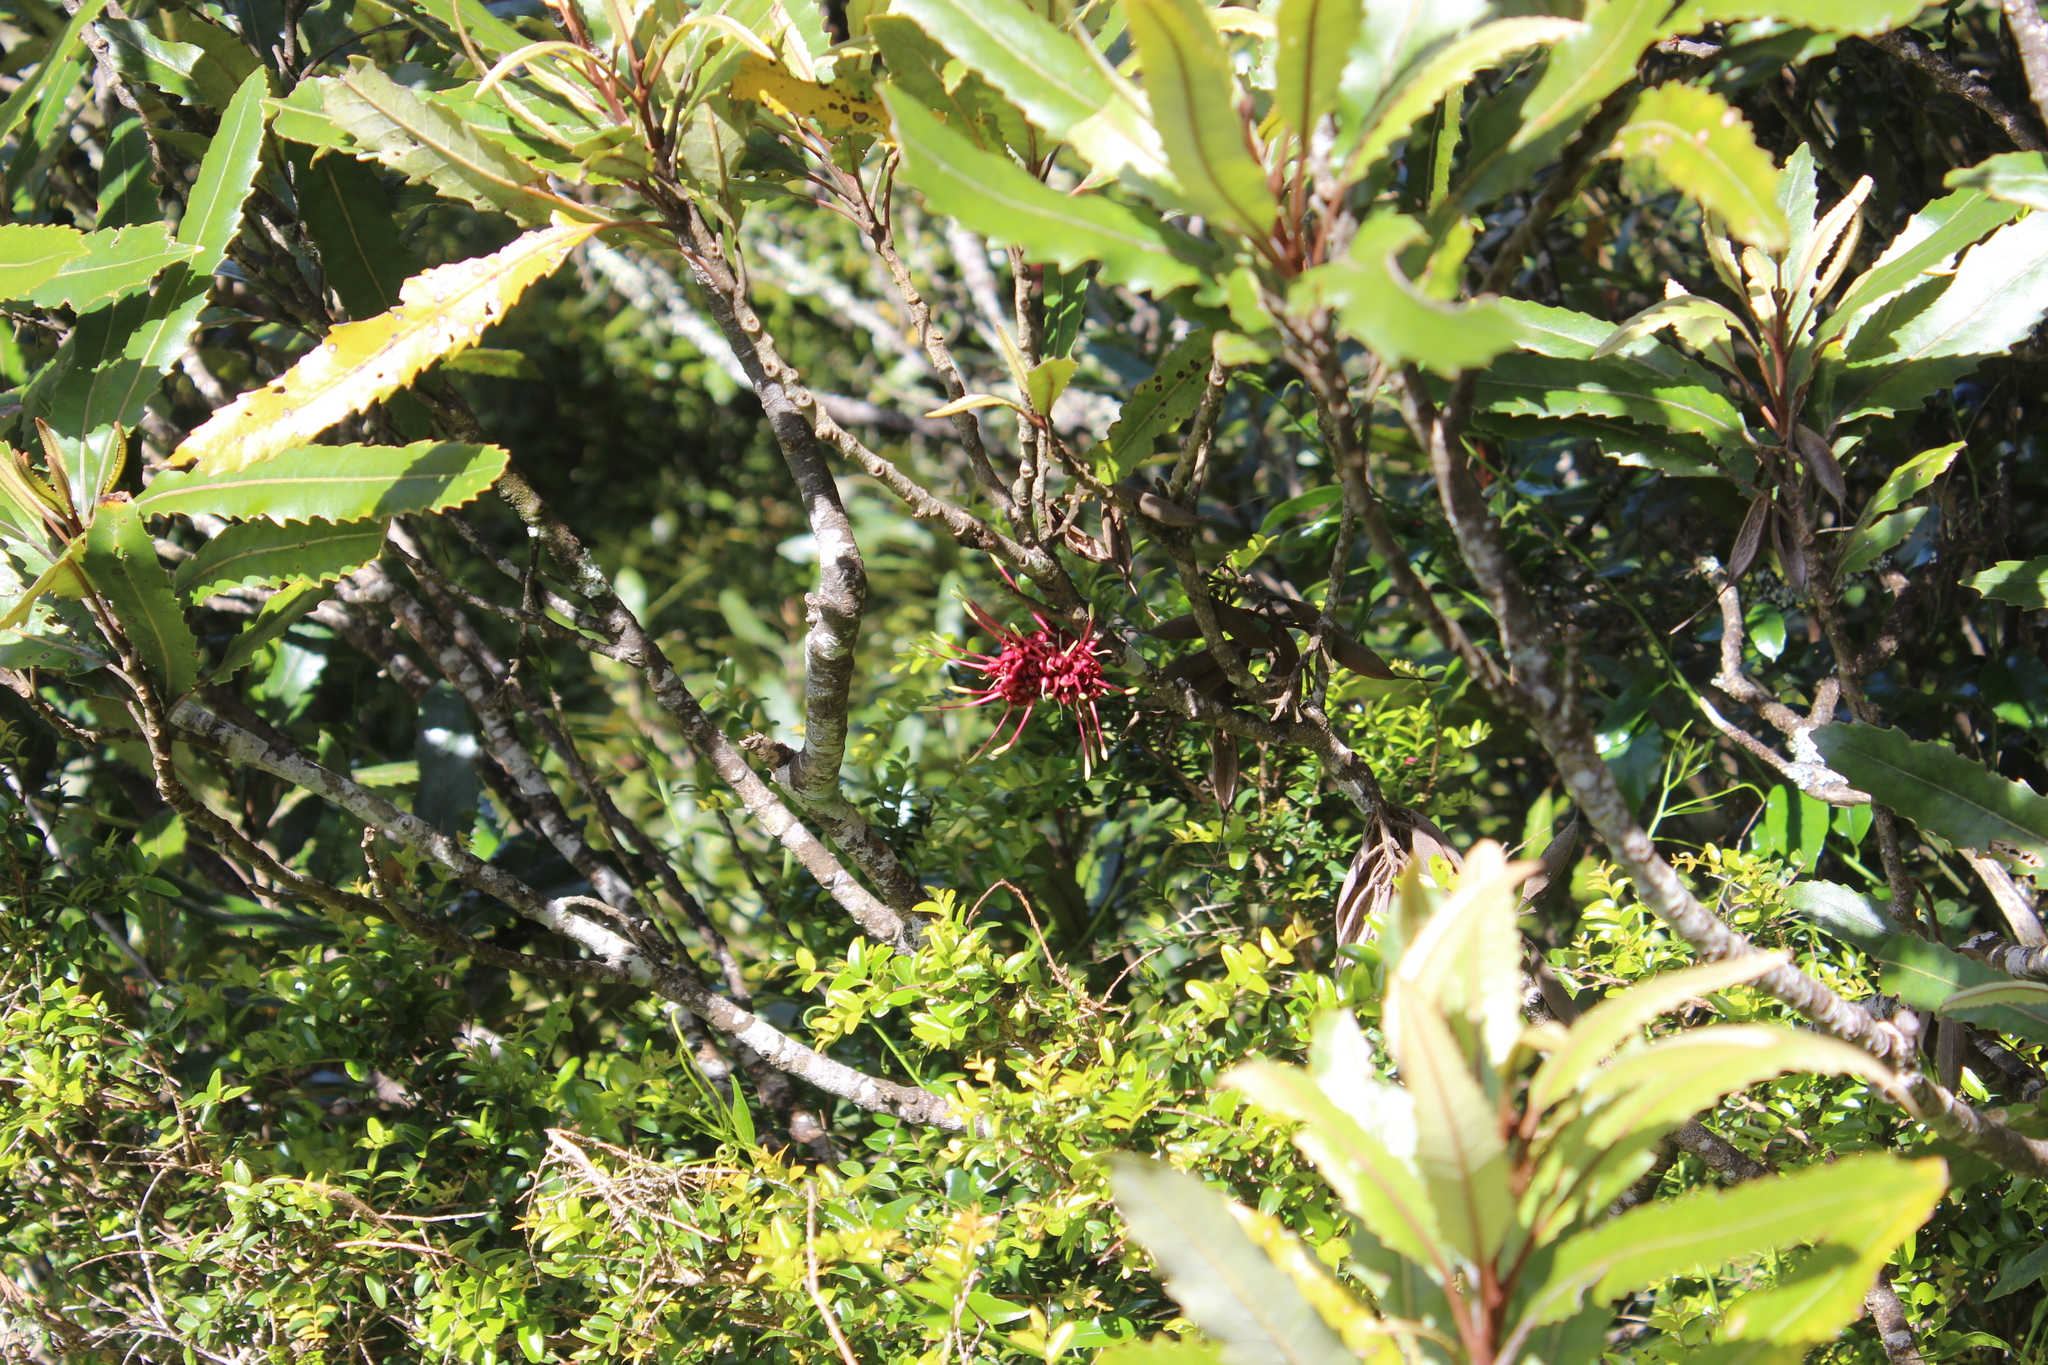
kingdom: Plantae
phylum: Tracheophyta
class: Magnoliopsida
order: Proteales
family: Proteaceae
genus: Knightia
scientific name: Knightia excelsa
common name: New zealand-honeysuckle
